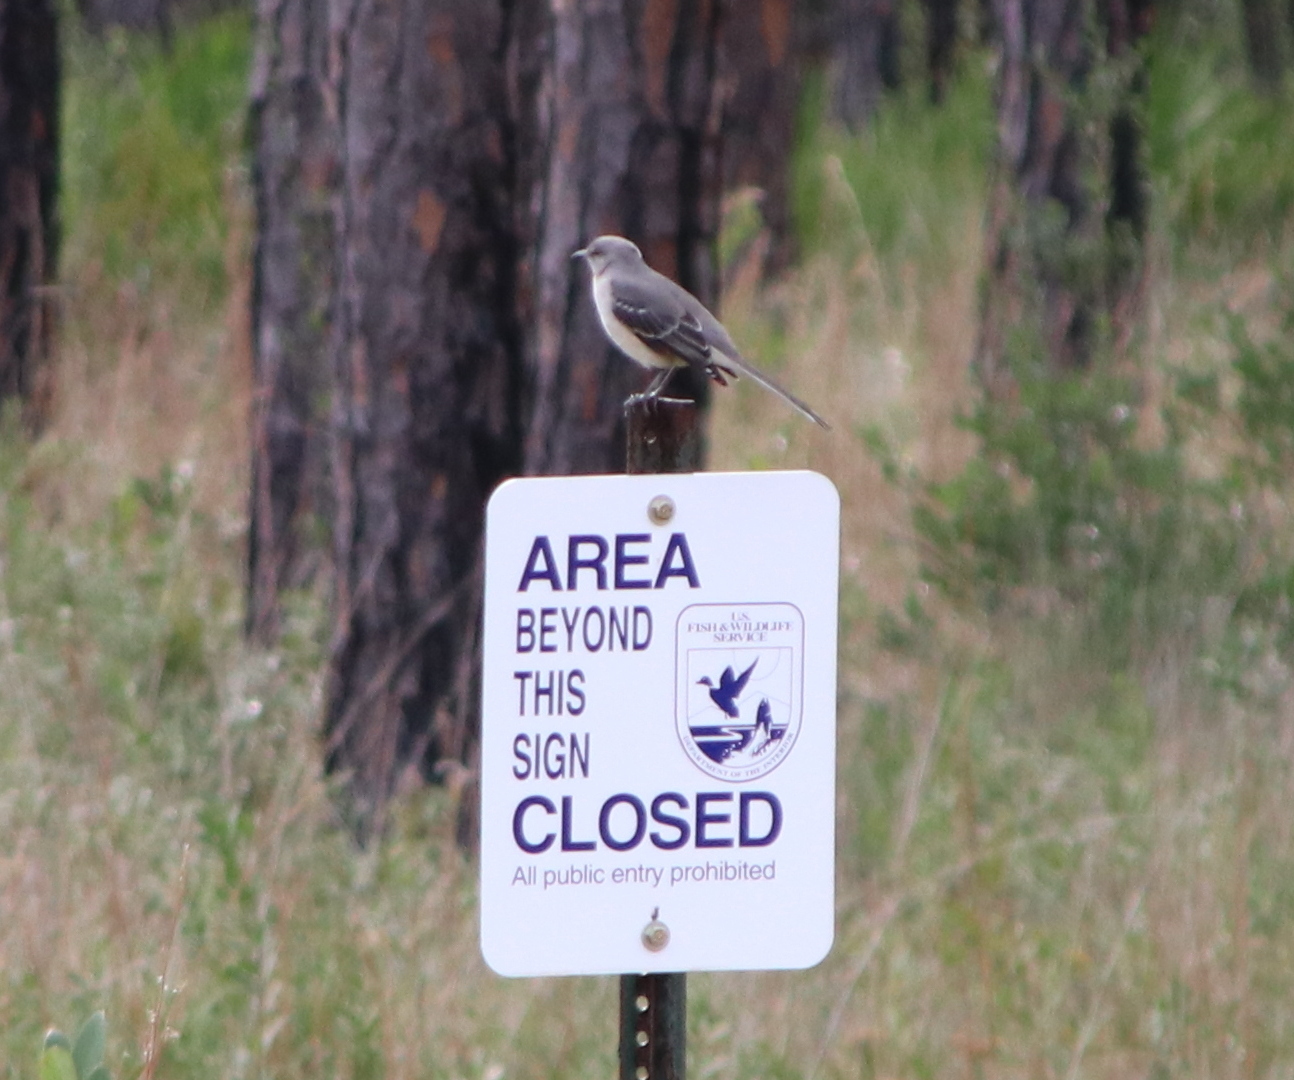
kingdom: Animalia
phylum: Chordata
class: Aves
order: Passeriformes
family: Mimidae
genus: Mimus
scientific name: Mimus polyglottos
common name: Northern mockingbird
